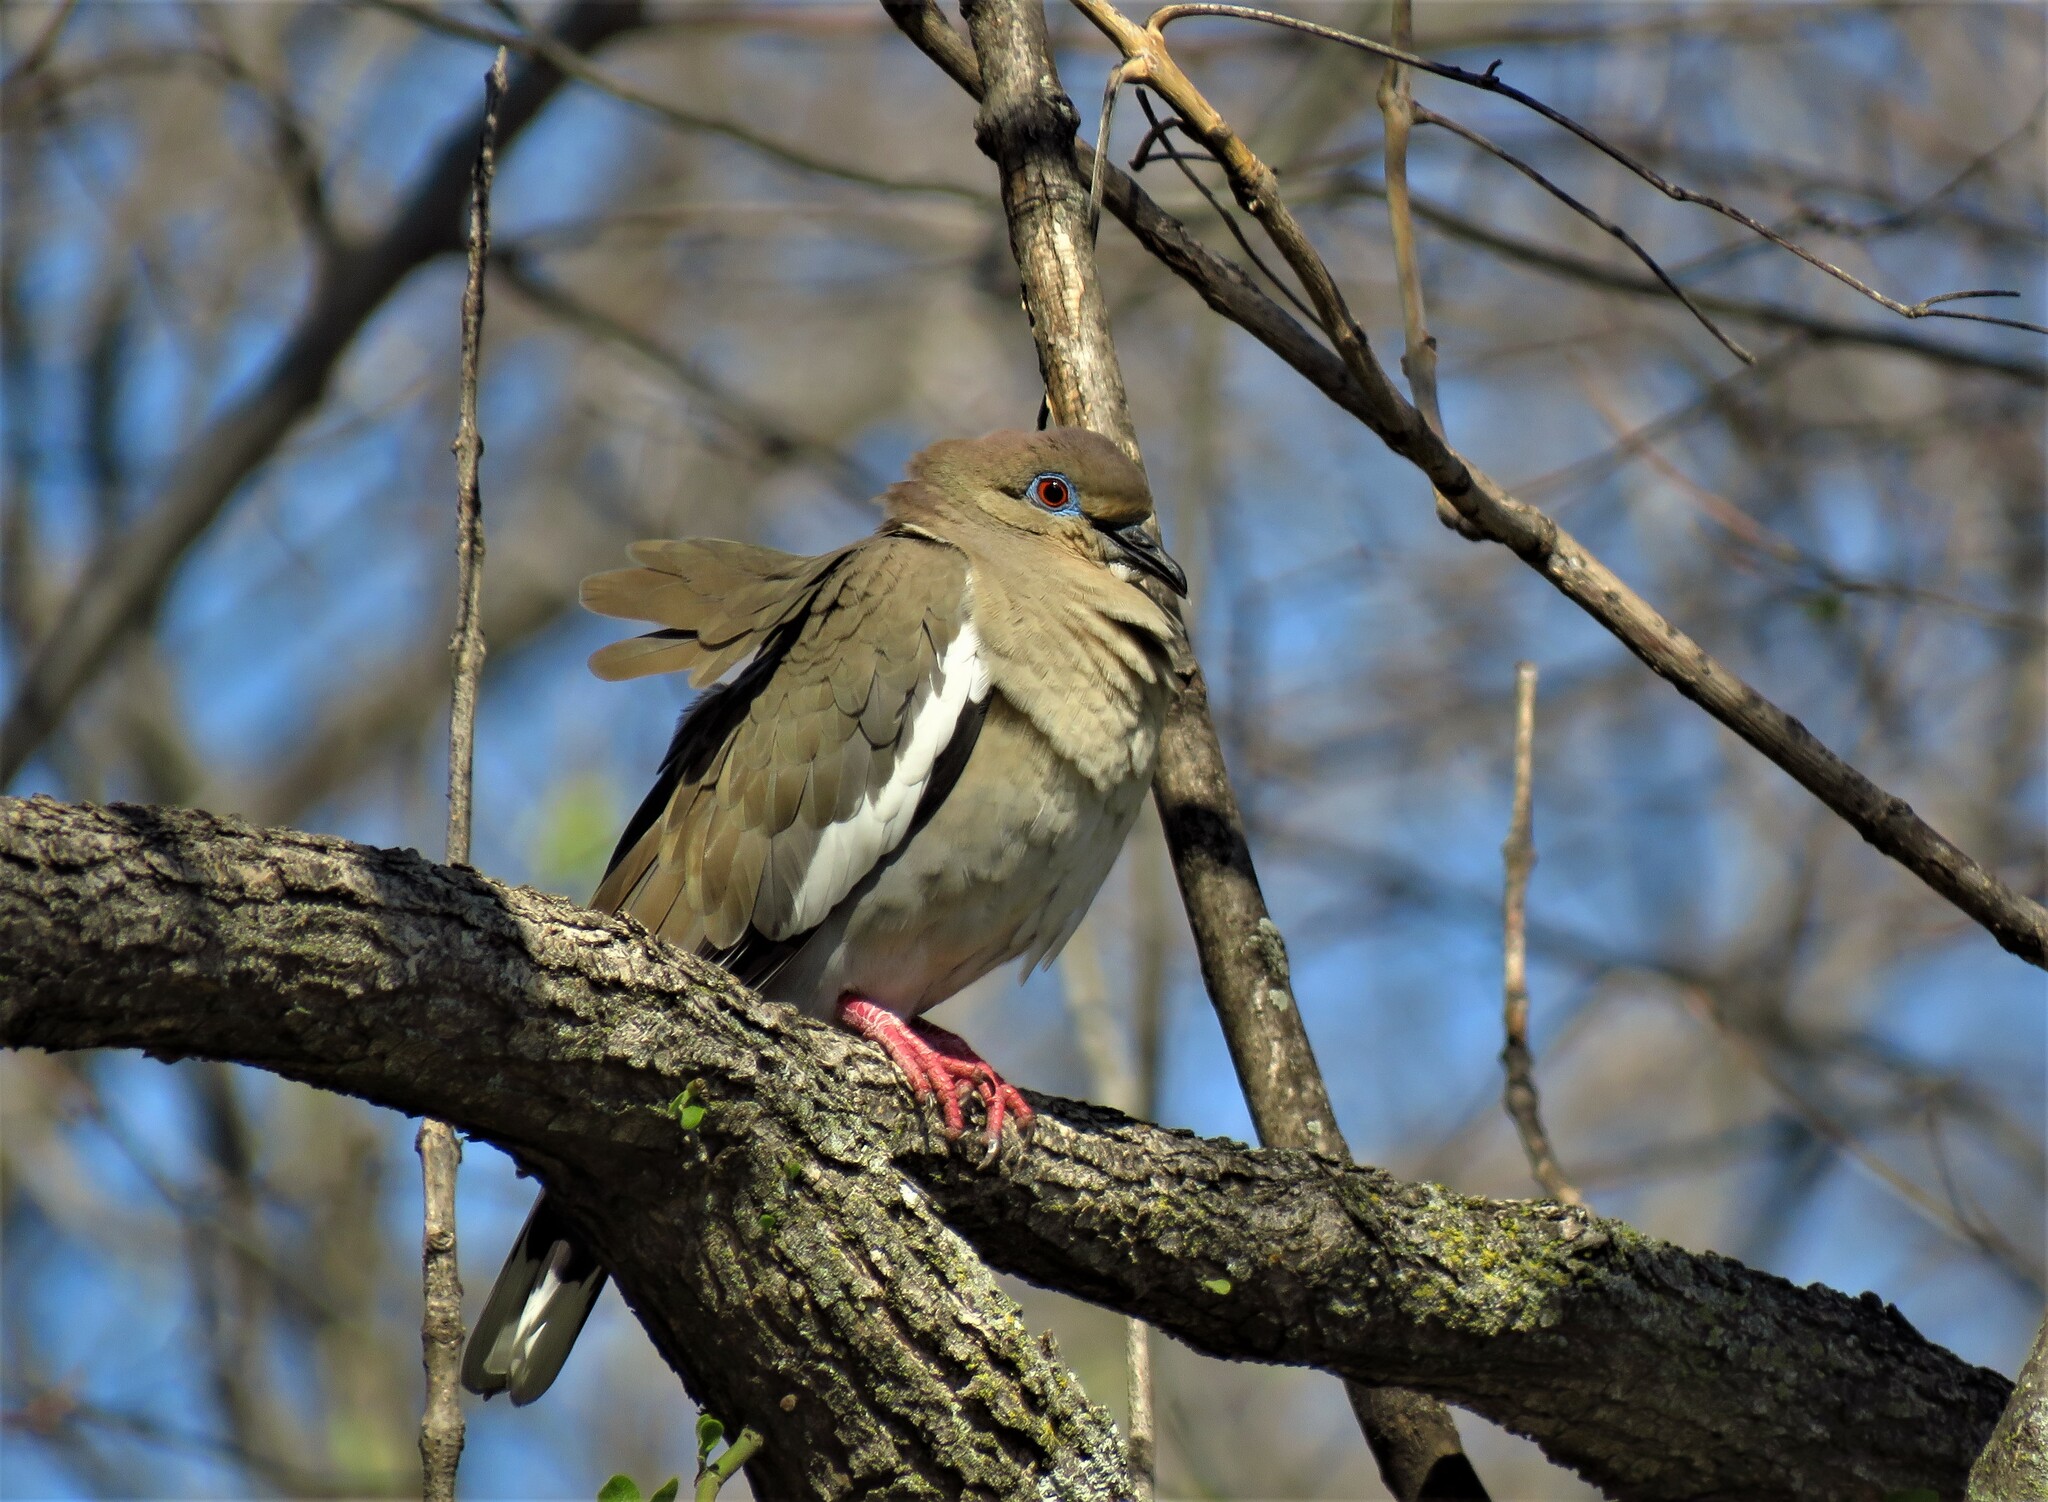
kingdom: Animalia
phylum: Chordata
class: Aves
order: Columbiformes
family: Columbidae
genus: Zenaida
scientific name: Zenaida asiatica
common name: White-winged dove
